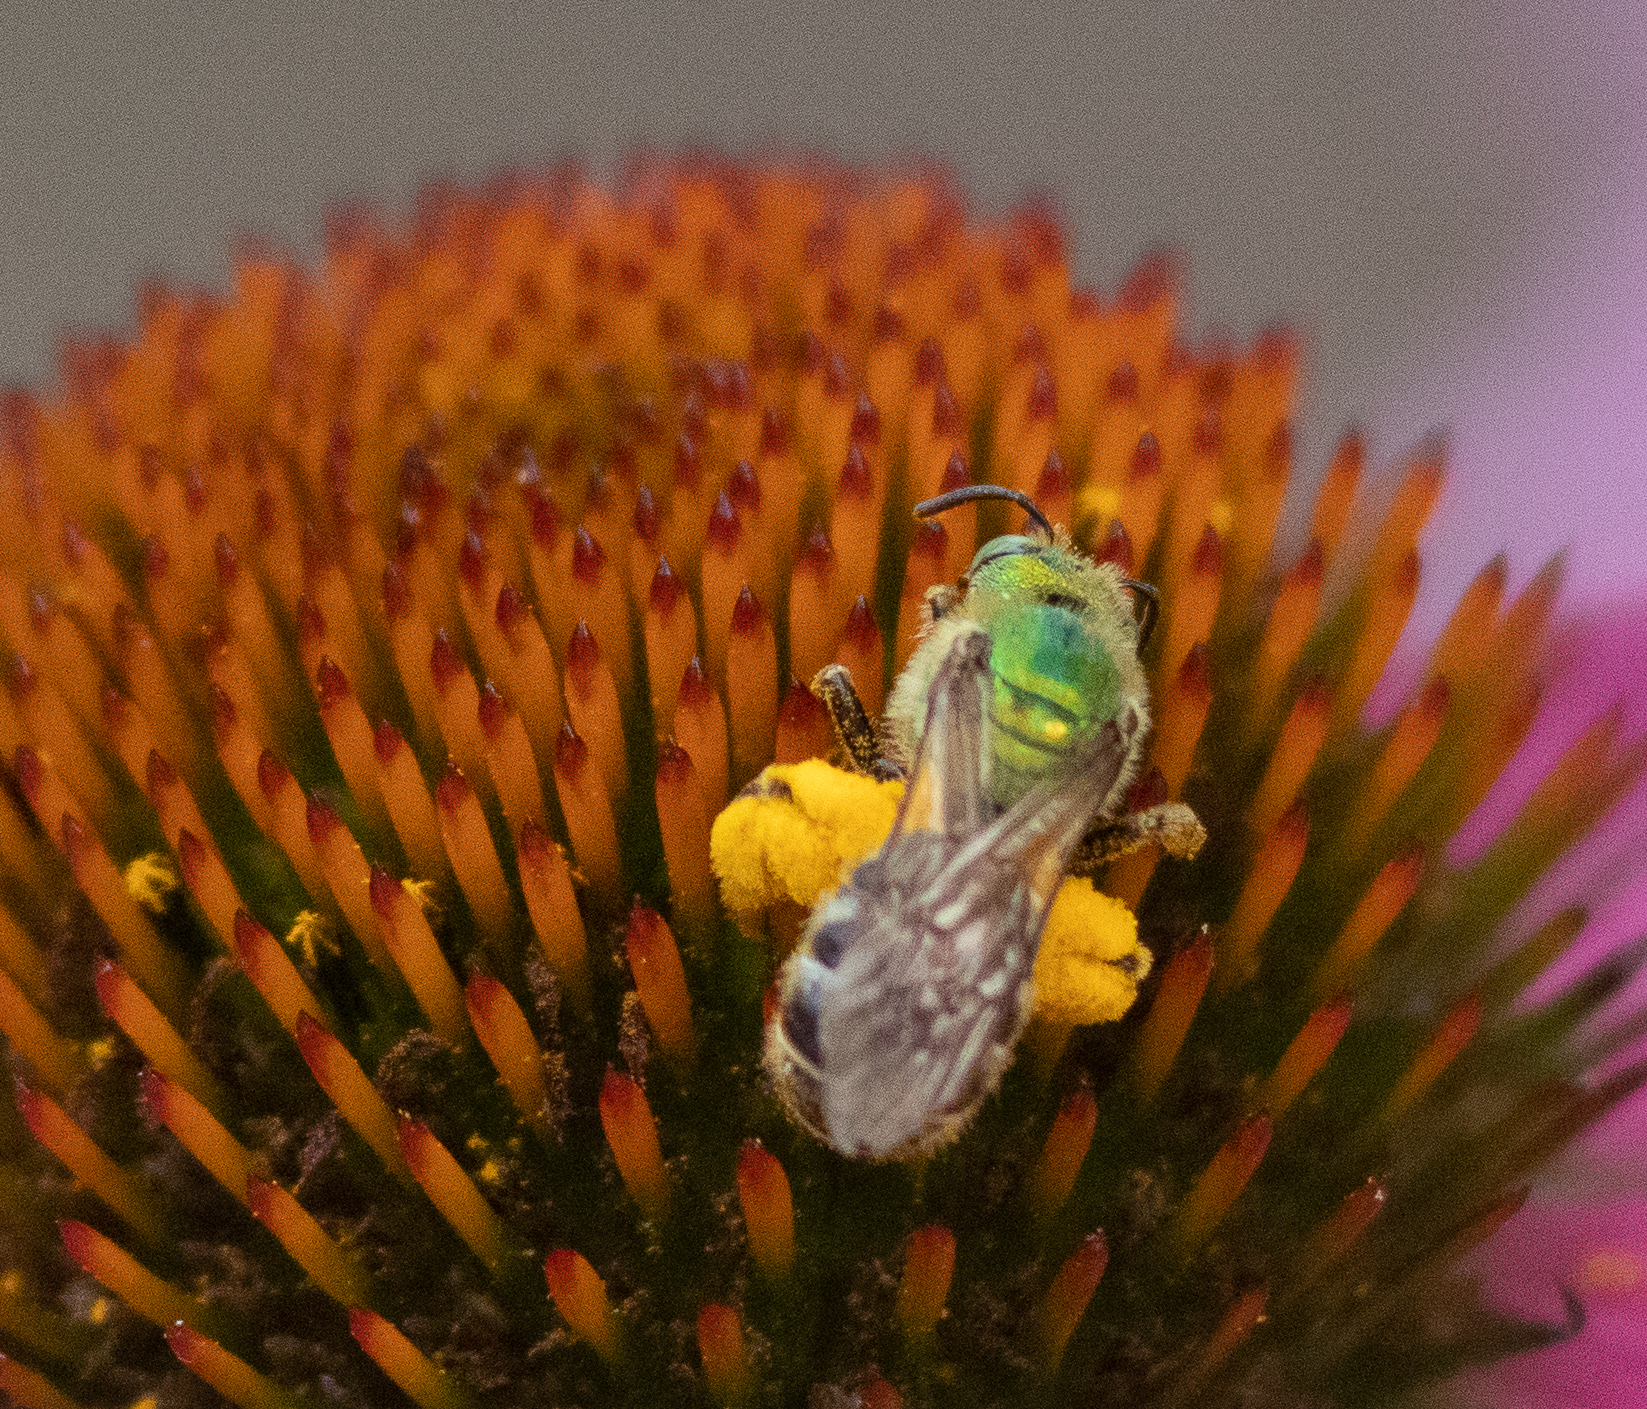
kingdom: Animalia
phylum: Arthropoda
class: Insecta
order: Hymenoptera
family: Halictidae
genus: Agapostemon
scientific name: Agapostemon virescens
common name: Bicolored striped sweat bee
